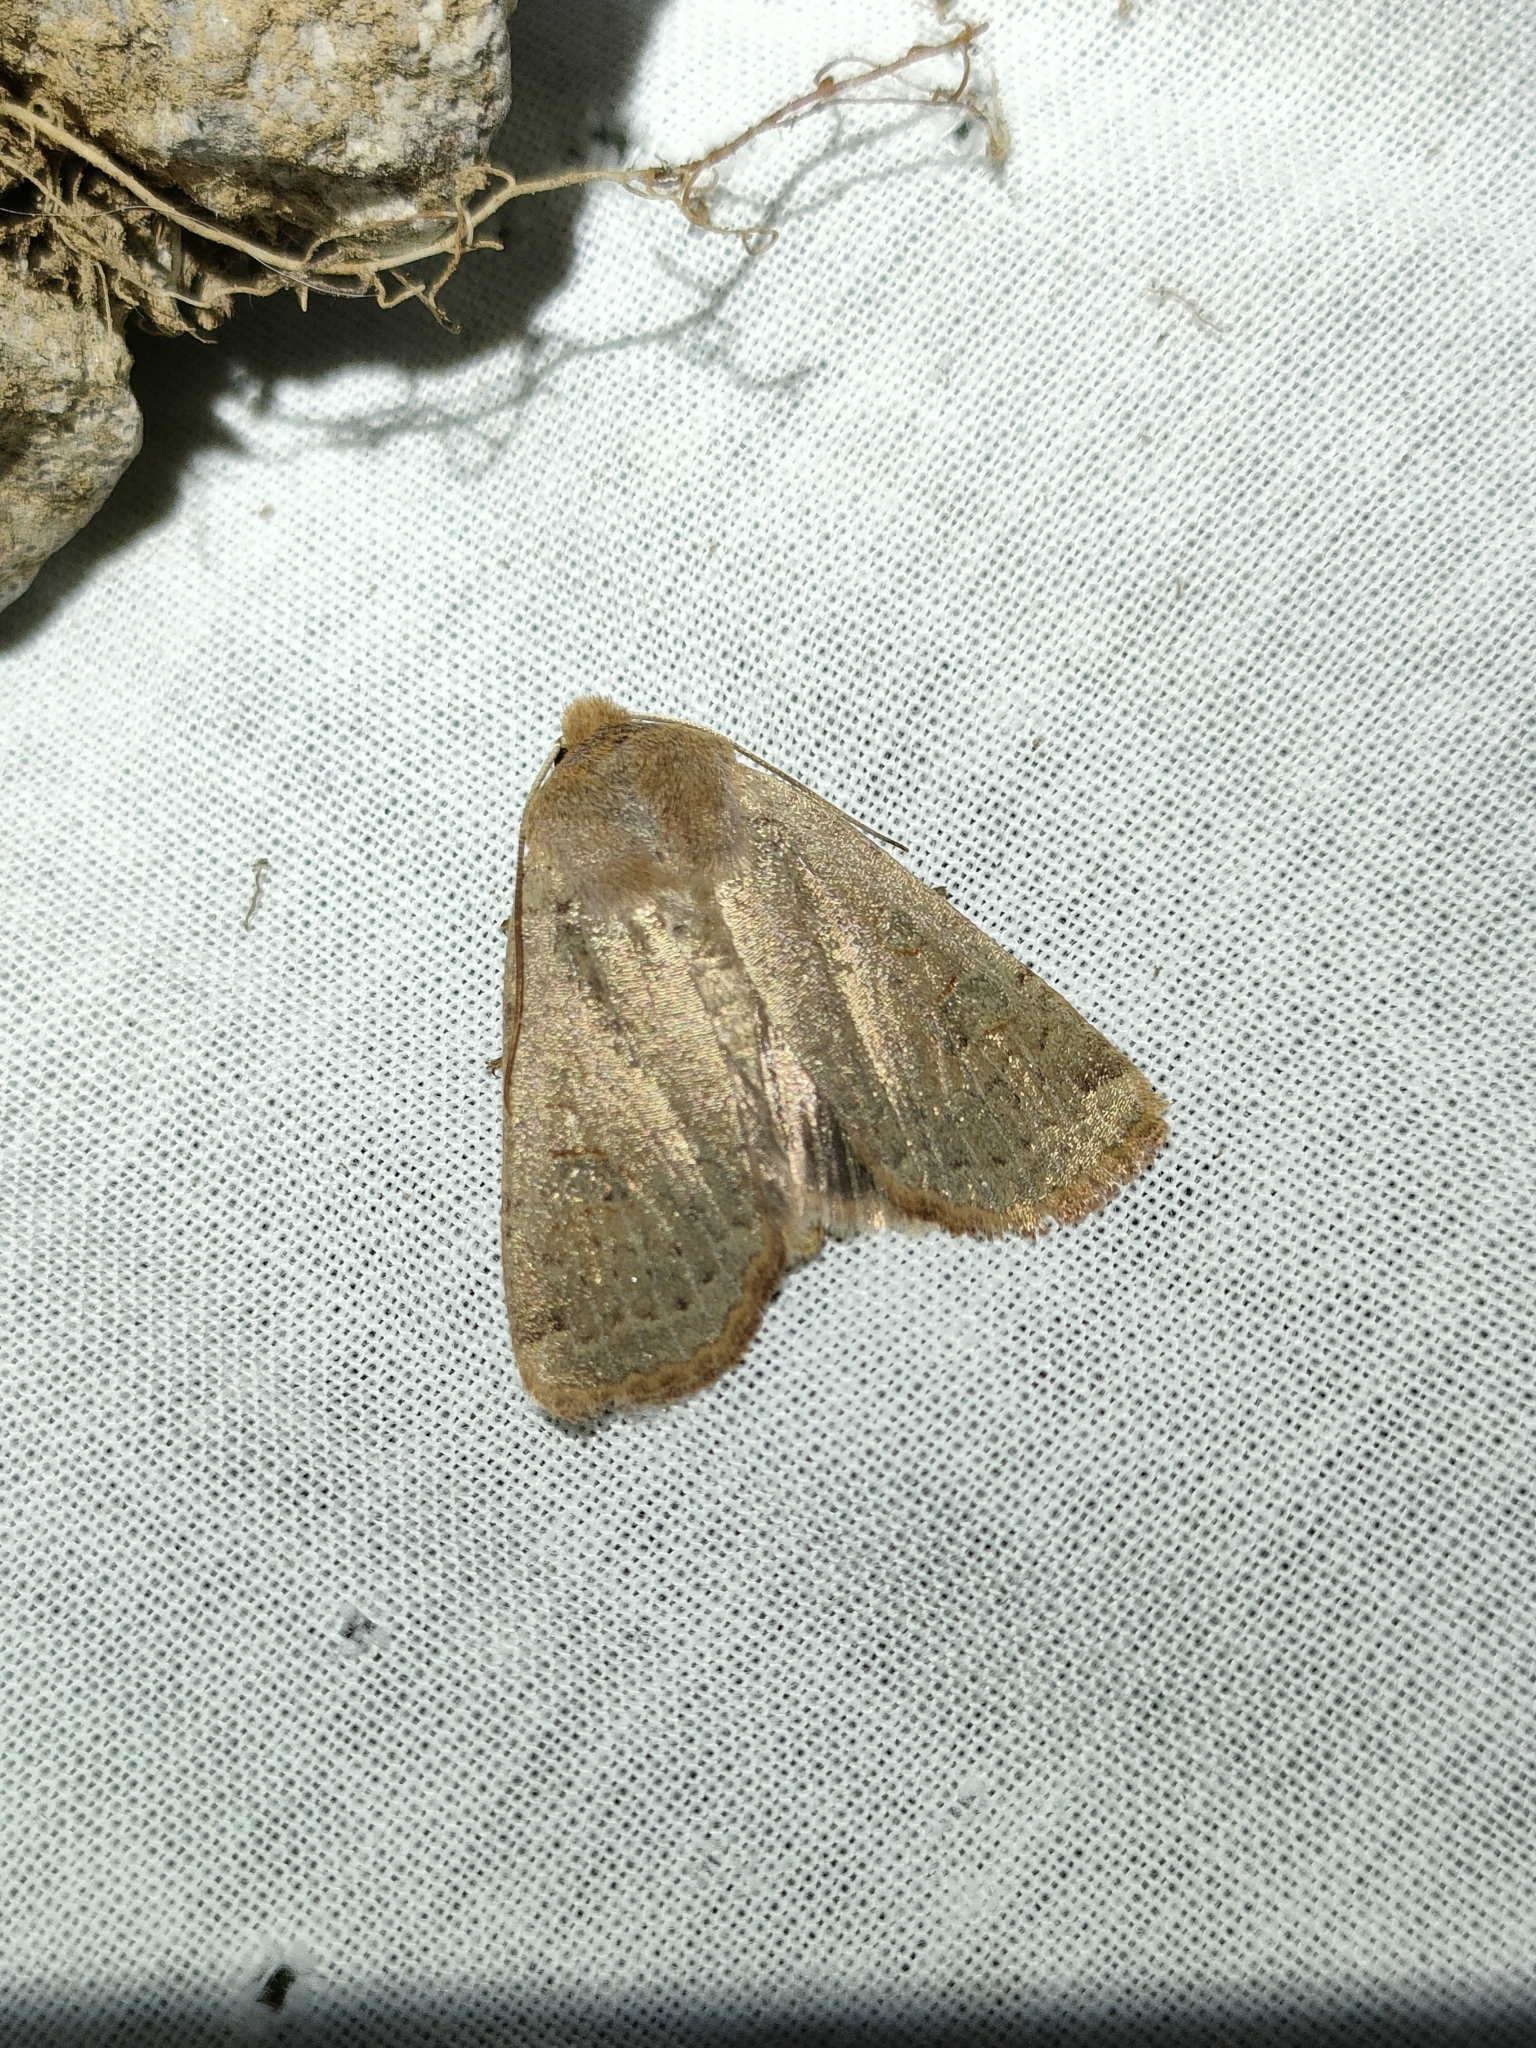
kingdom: Animalia
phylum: Arthropoda
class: Insecta
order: Lepidoptera
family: Noctuidae
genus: Conistra
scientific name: Conistra erythrocephala
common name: Red-headed chestnut
